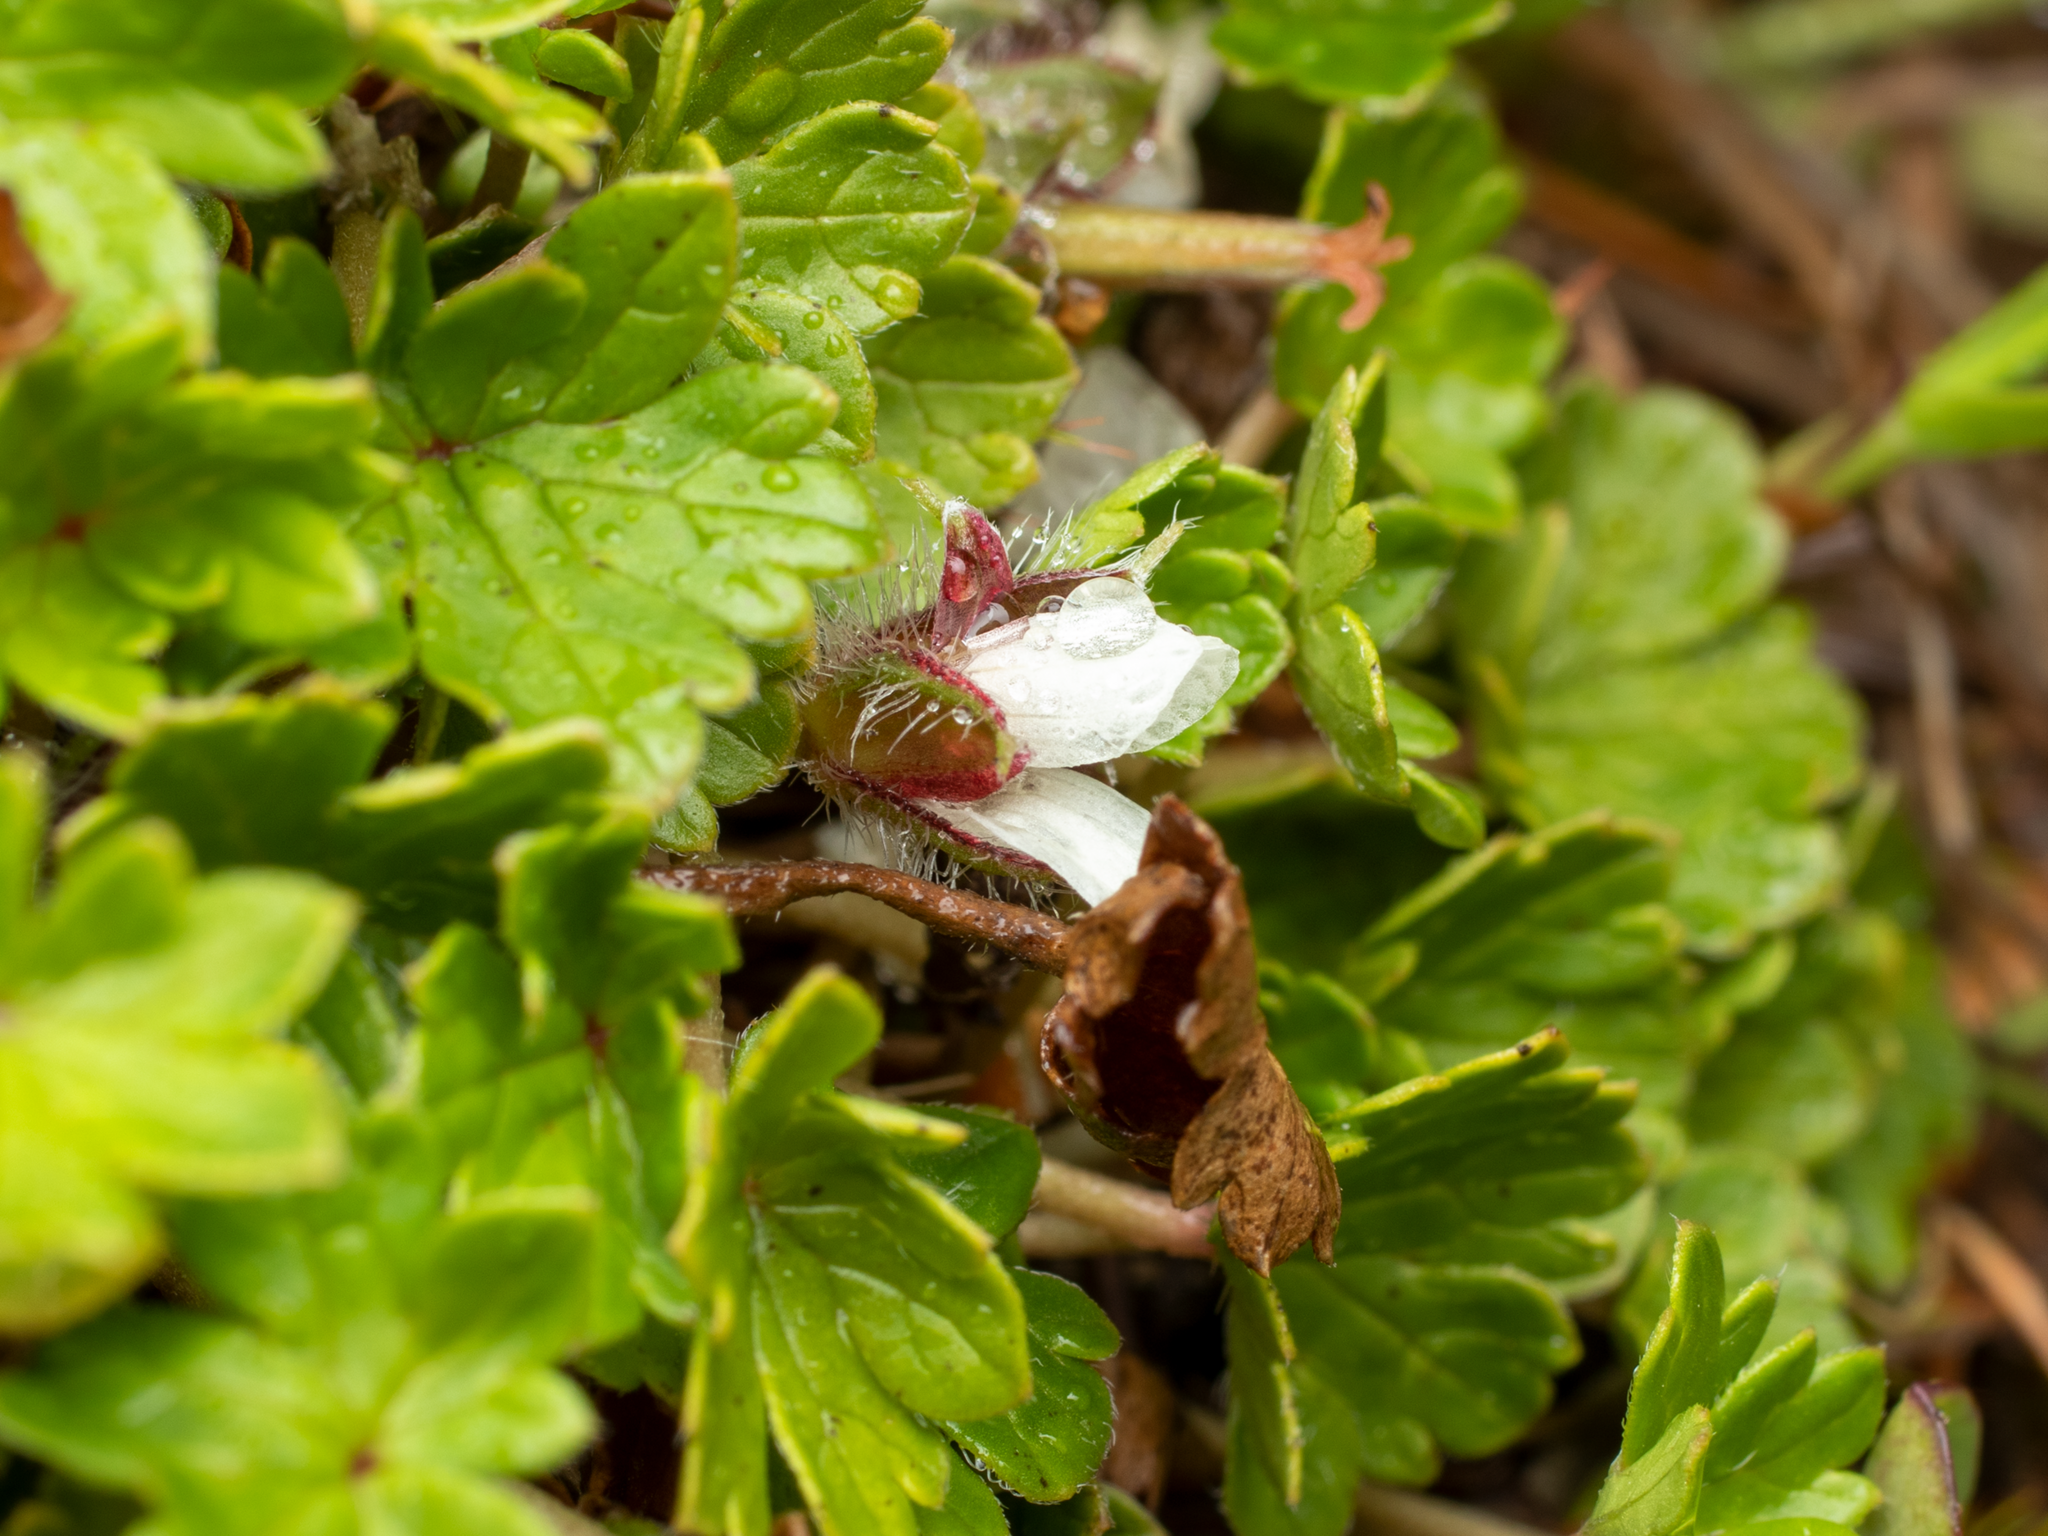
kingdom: Plantae
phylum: Tracheophyta
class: Magnoliopsida
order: Geraniales
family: Geraniaceae
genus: Geranium
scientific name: Geranium brevicaule
